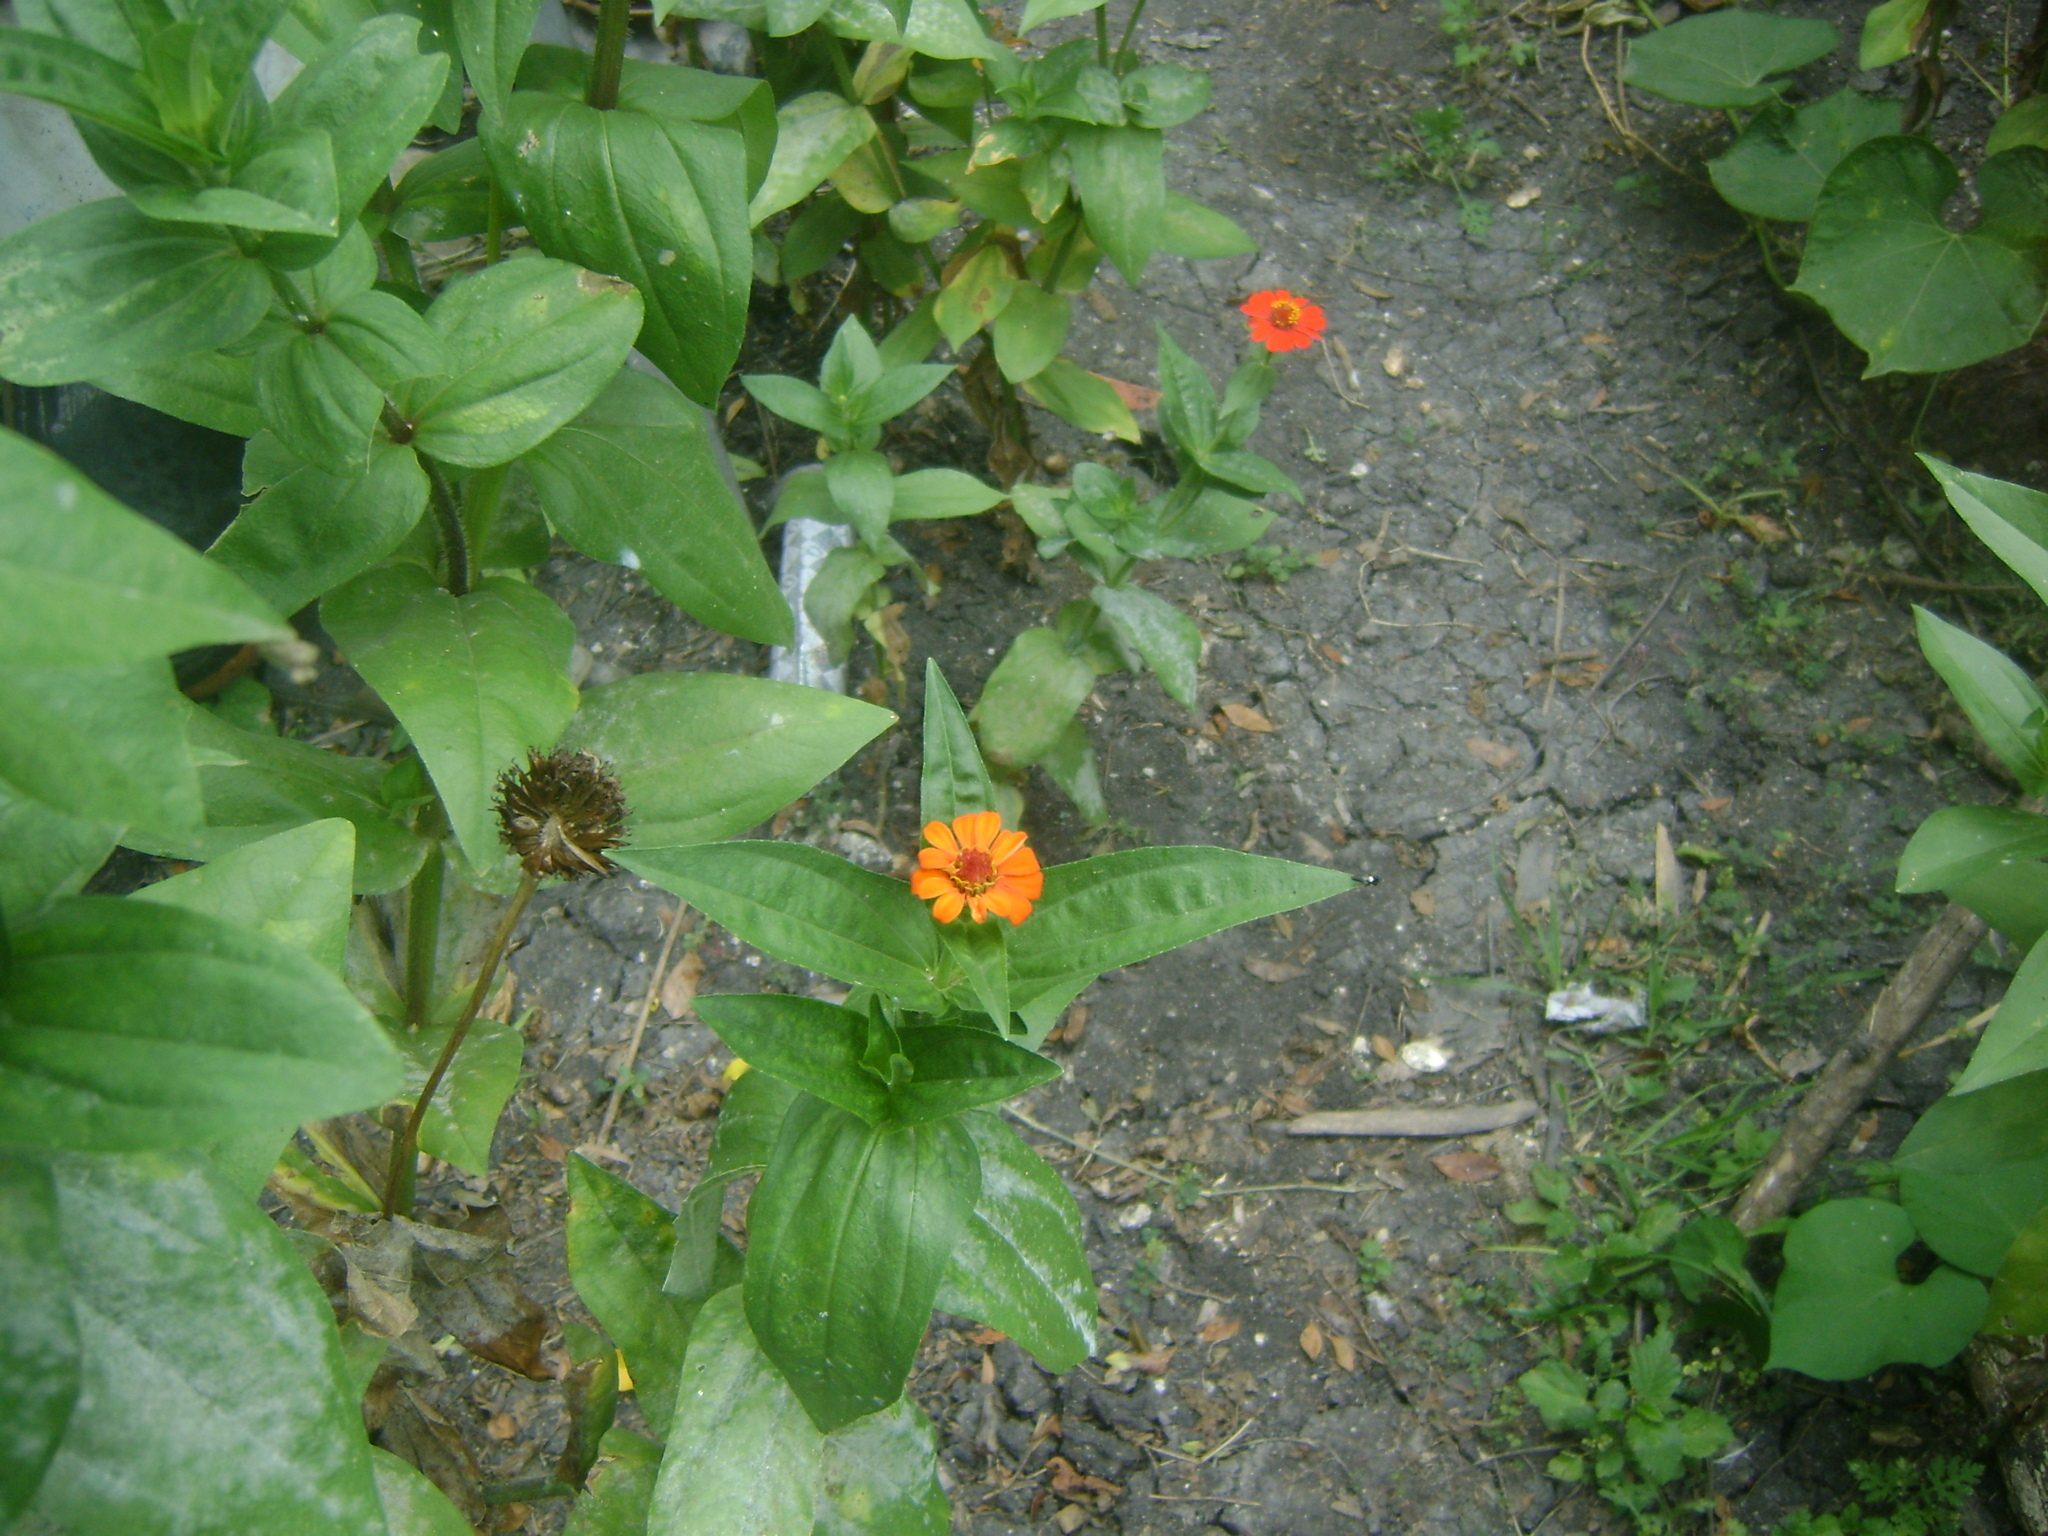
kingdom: Plantae
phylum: Tracheophyta
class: Magnoliopsida
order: Asterales
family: Asteraceae
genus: Zinnia
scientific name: Zinnia elegans
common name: Youth-and-age
